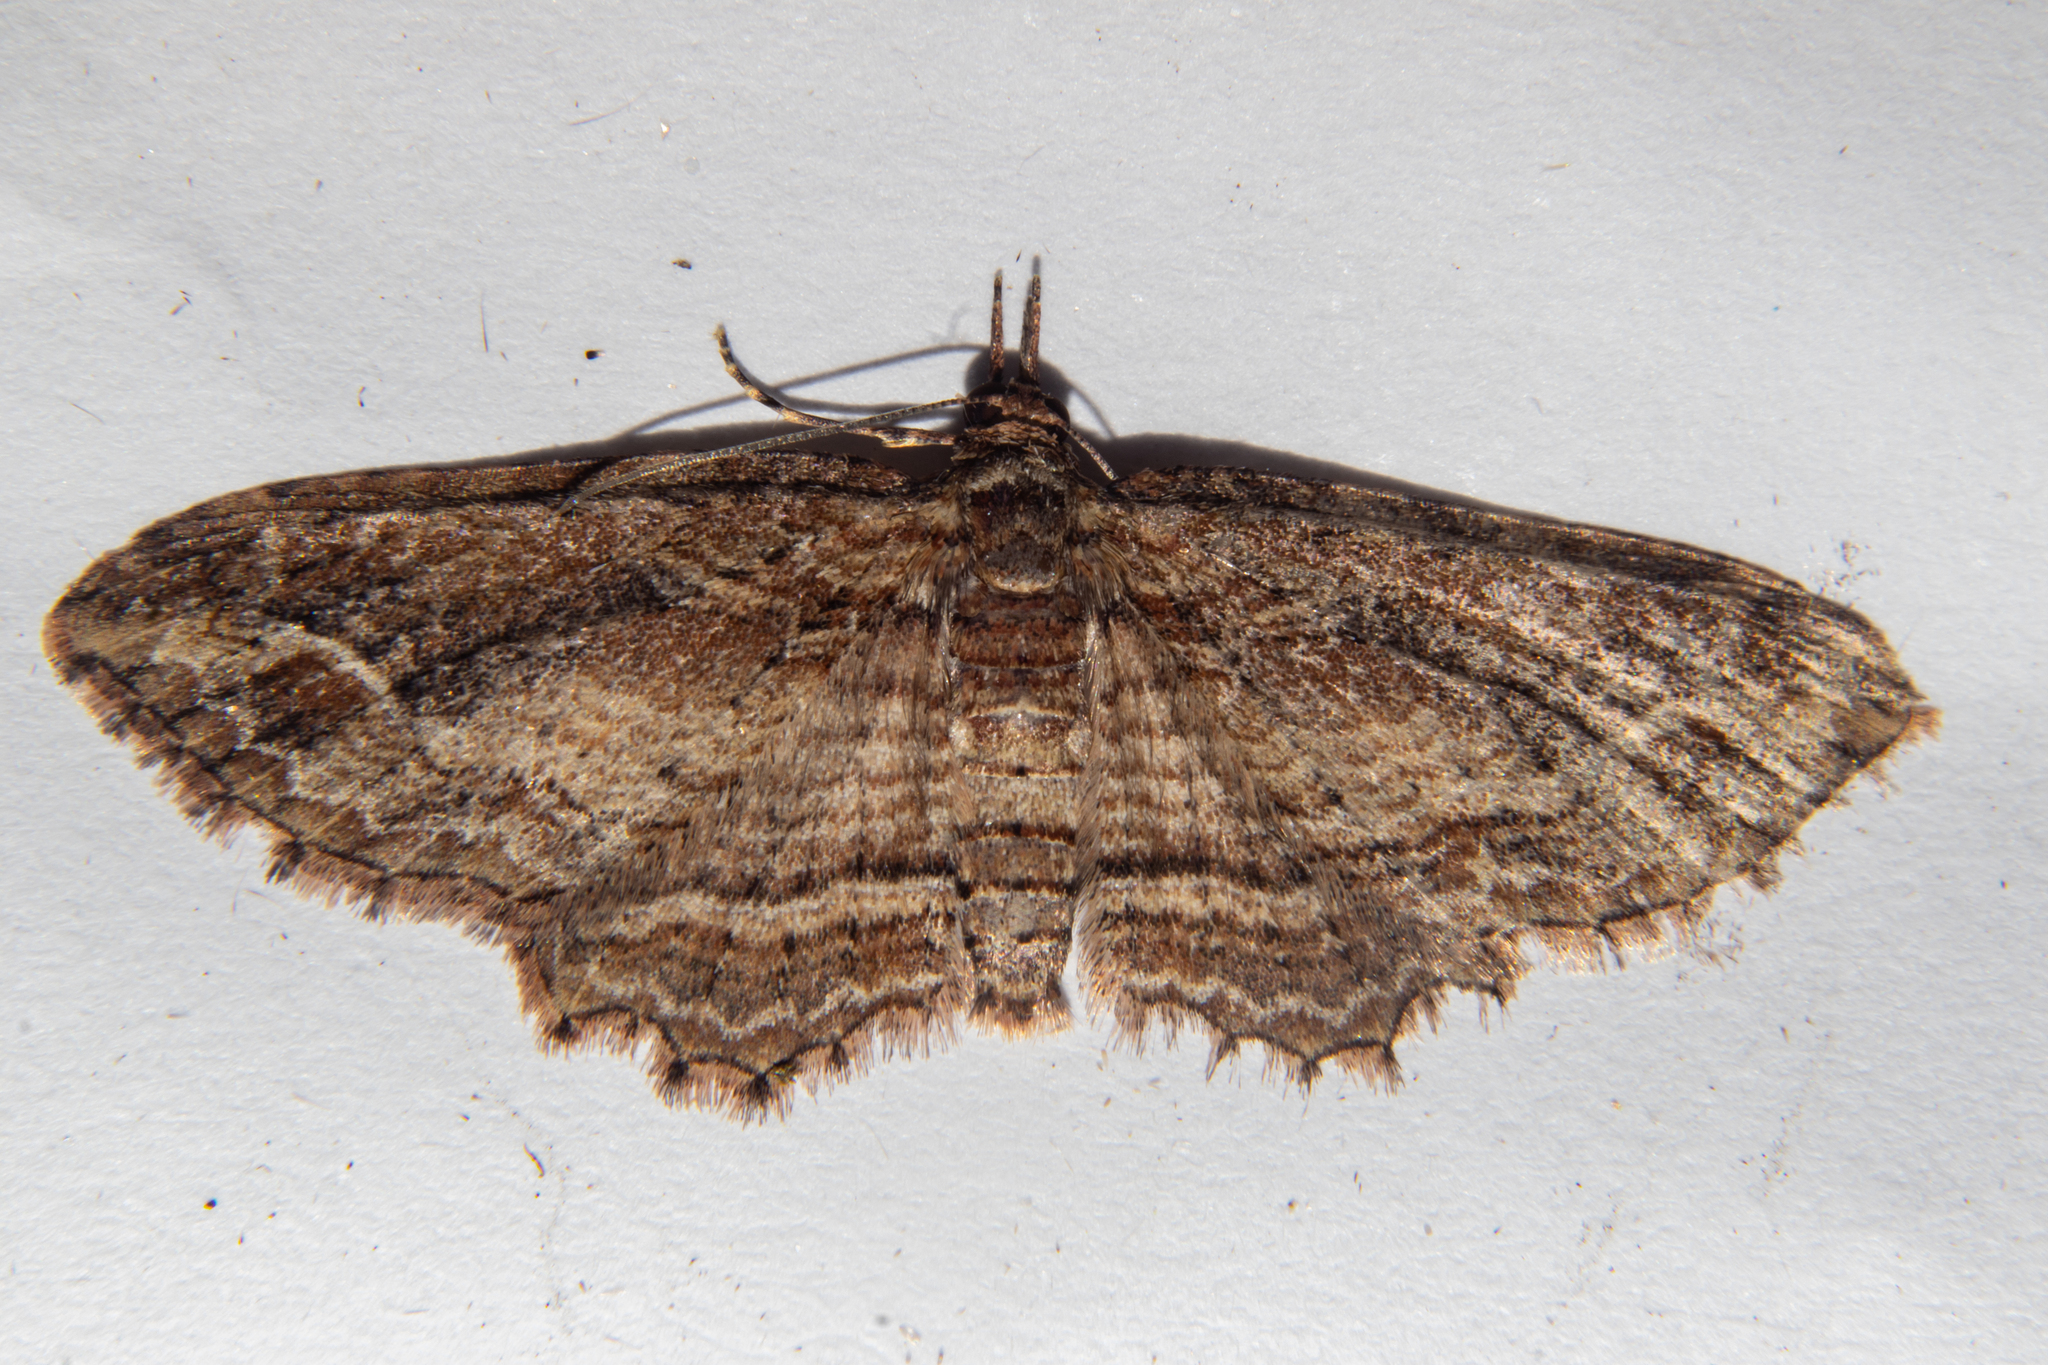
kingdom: Animalia
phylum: Arthropoda
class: Insecta
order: Lepidoptera
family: Geometridae
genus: Chloroclystis
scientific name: Chloroclystis filata
